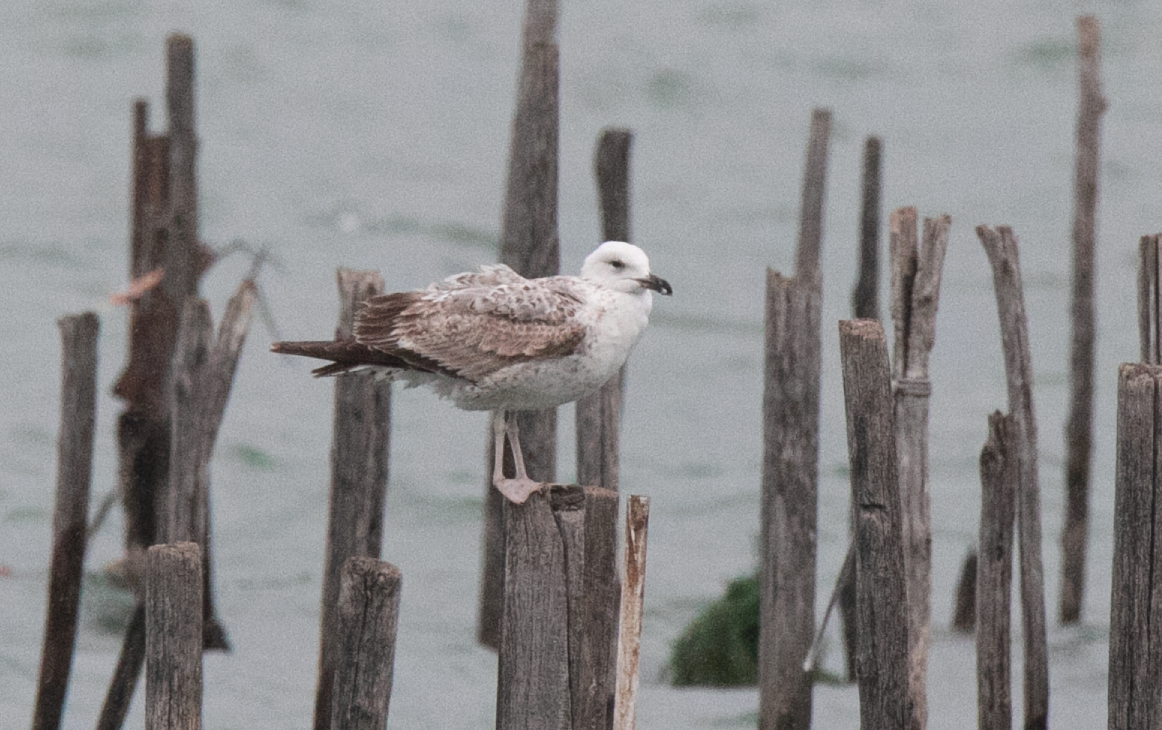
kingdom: Animalia
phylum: Chordata
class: Aves
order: Charadriiformes
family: Laridae
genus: Larus
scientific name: Larus michahellis
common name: Yellow-legged gull
